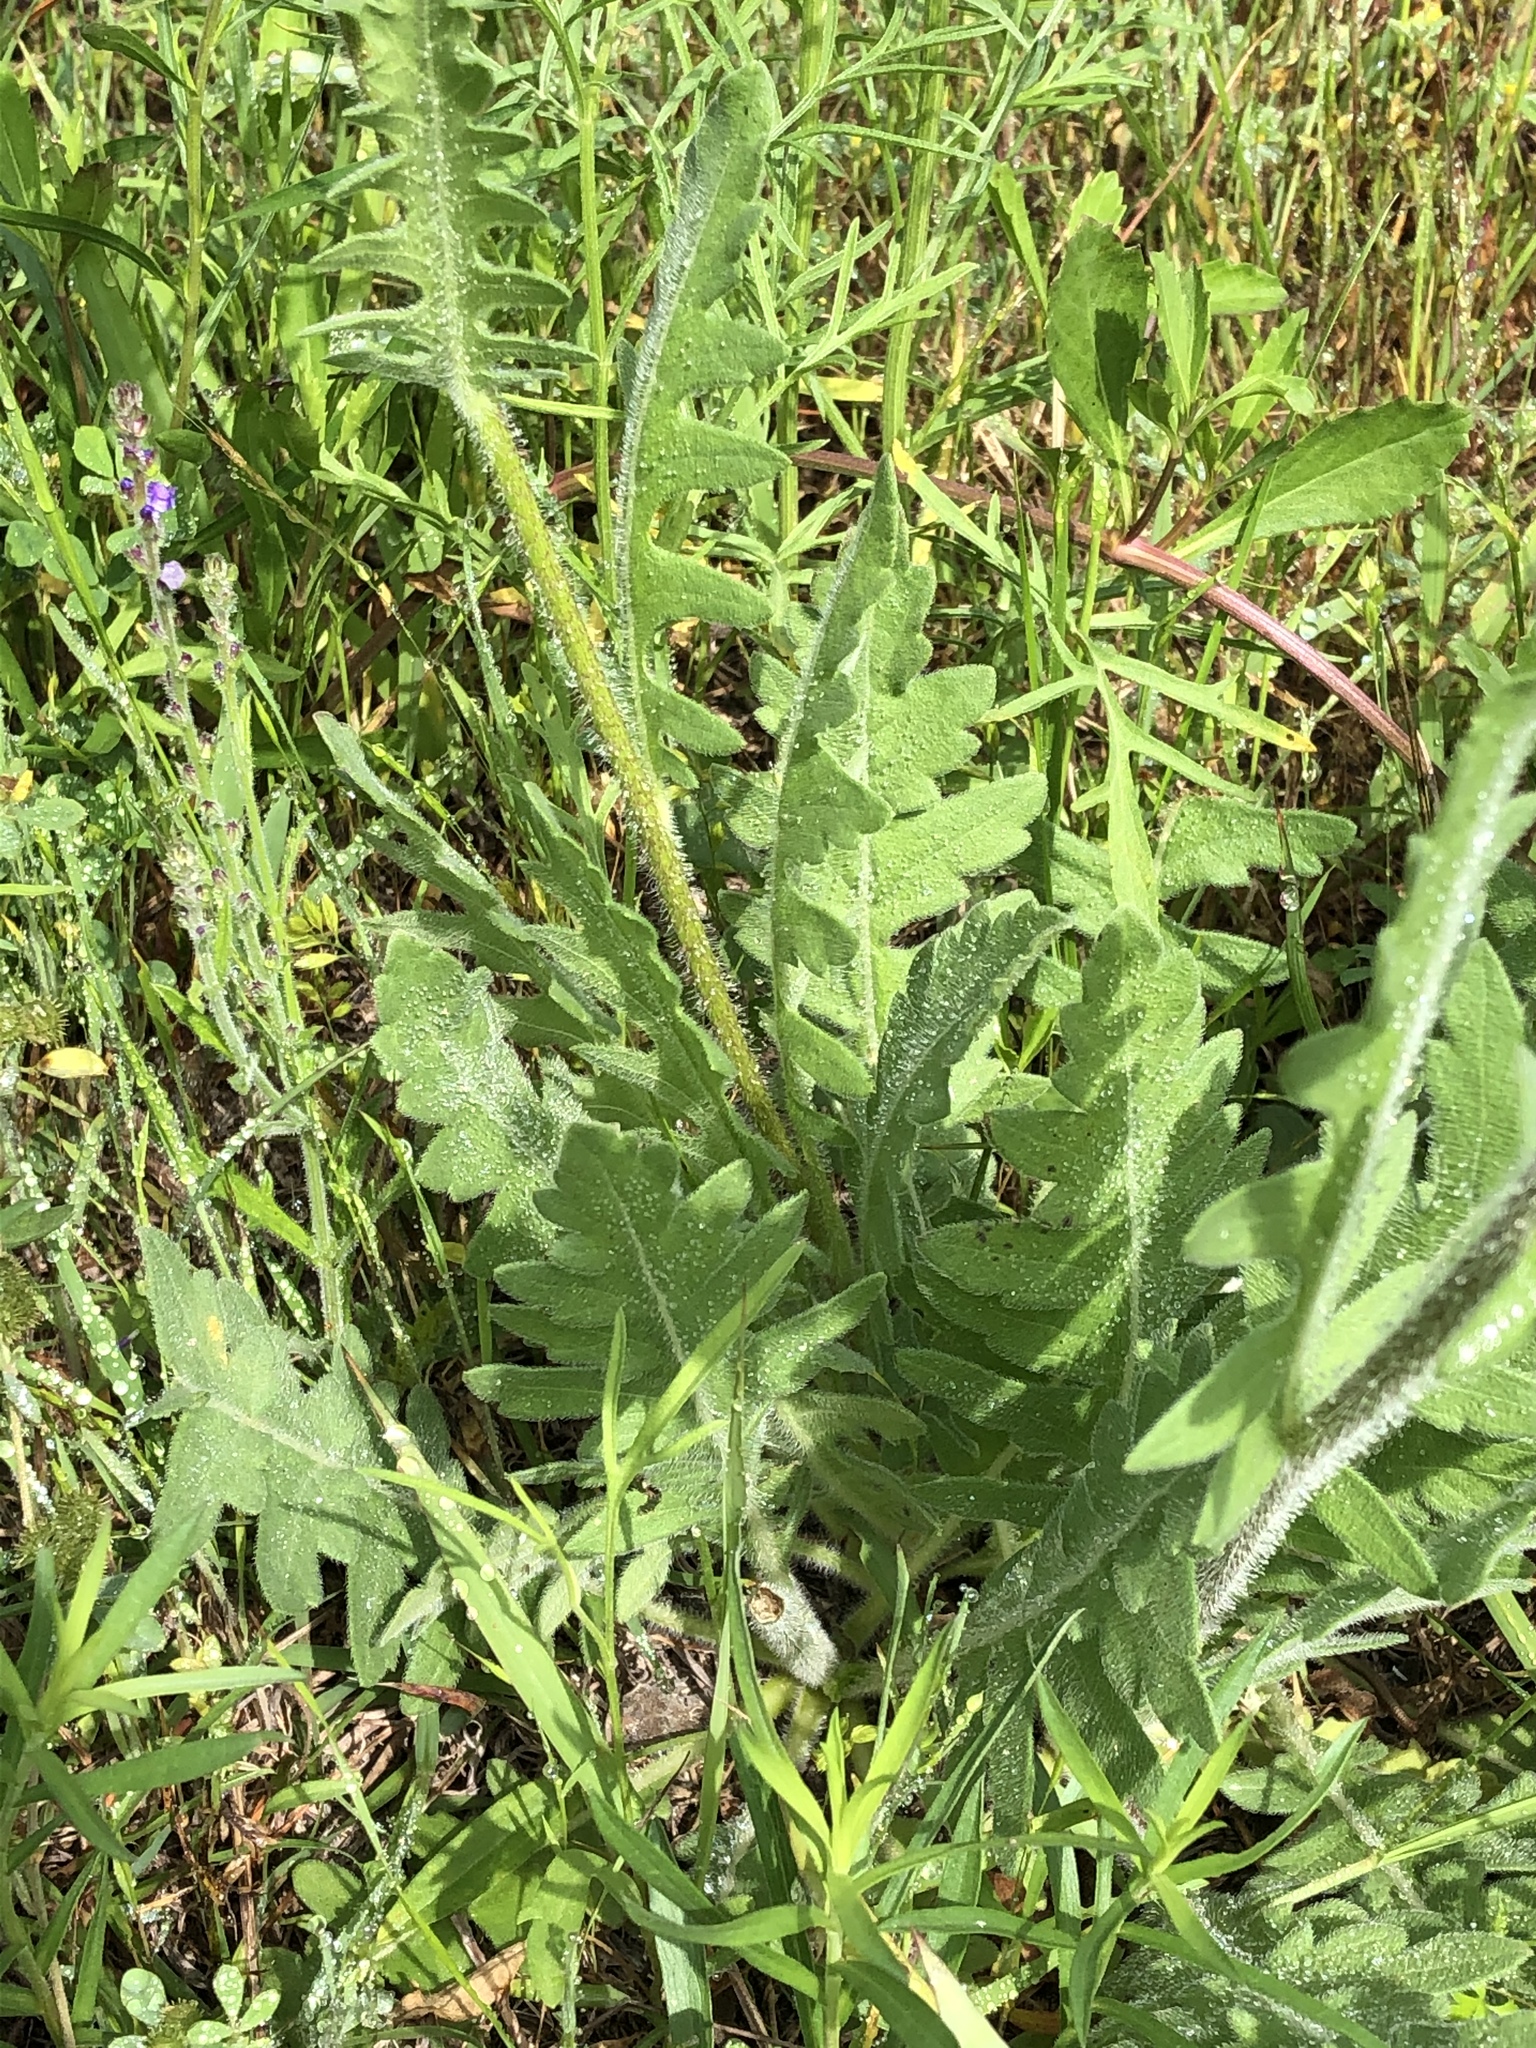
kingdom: Plantae
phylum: Tracheophyta
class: Magnoliopsida
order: Asterales
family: Asteraceae
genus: Engelmannia
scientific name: Engelmannia peristenia
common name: Engelmann's daisy
